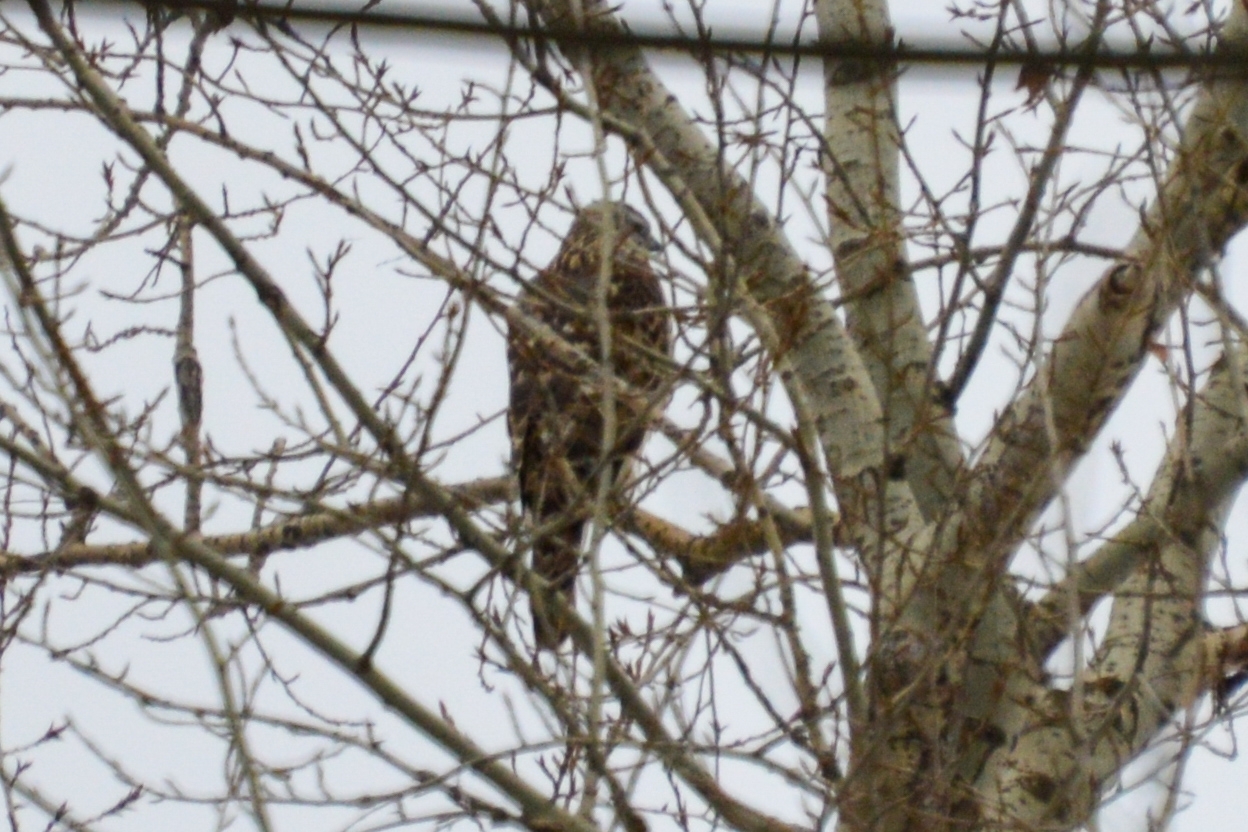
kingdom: Animalia
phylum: Chordata
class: Aves
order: Accipitriformes
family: Accipitridae
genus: Accipiter
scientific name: Accipiter gentilis
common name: Northern goshawk
